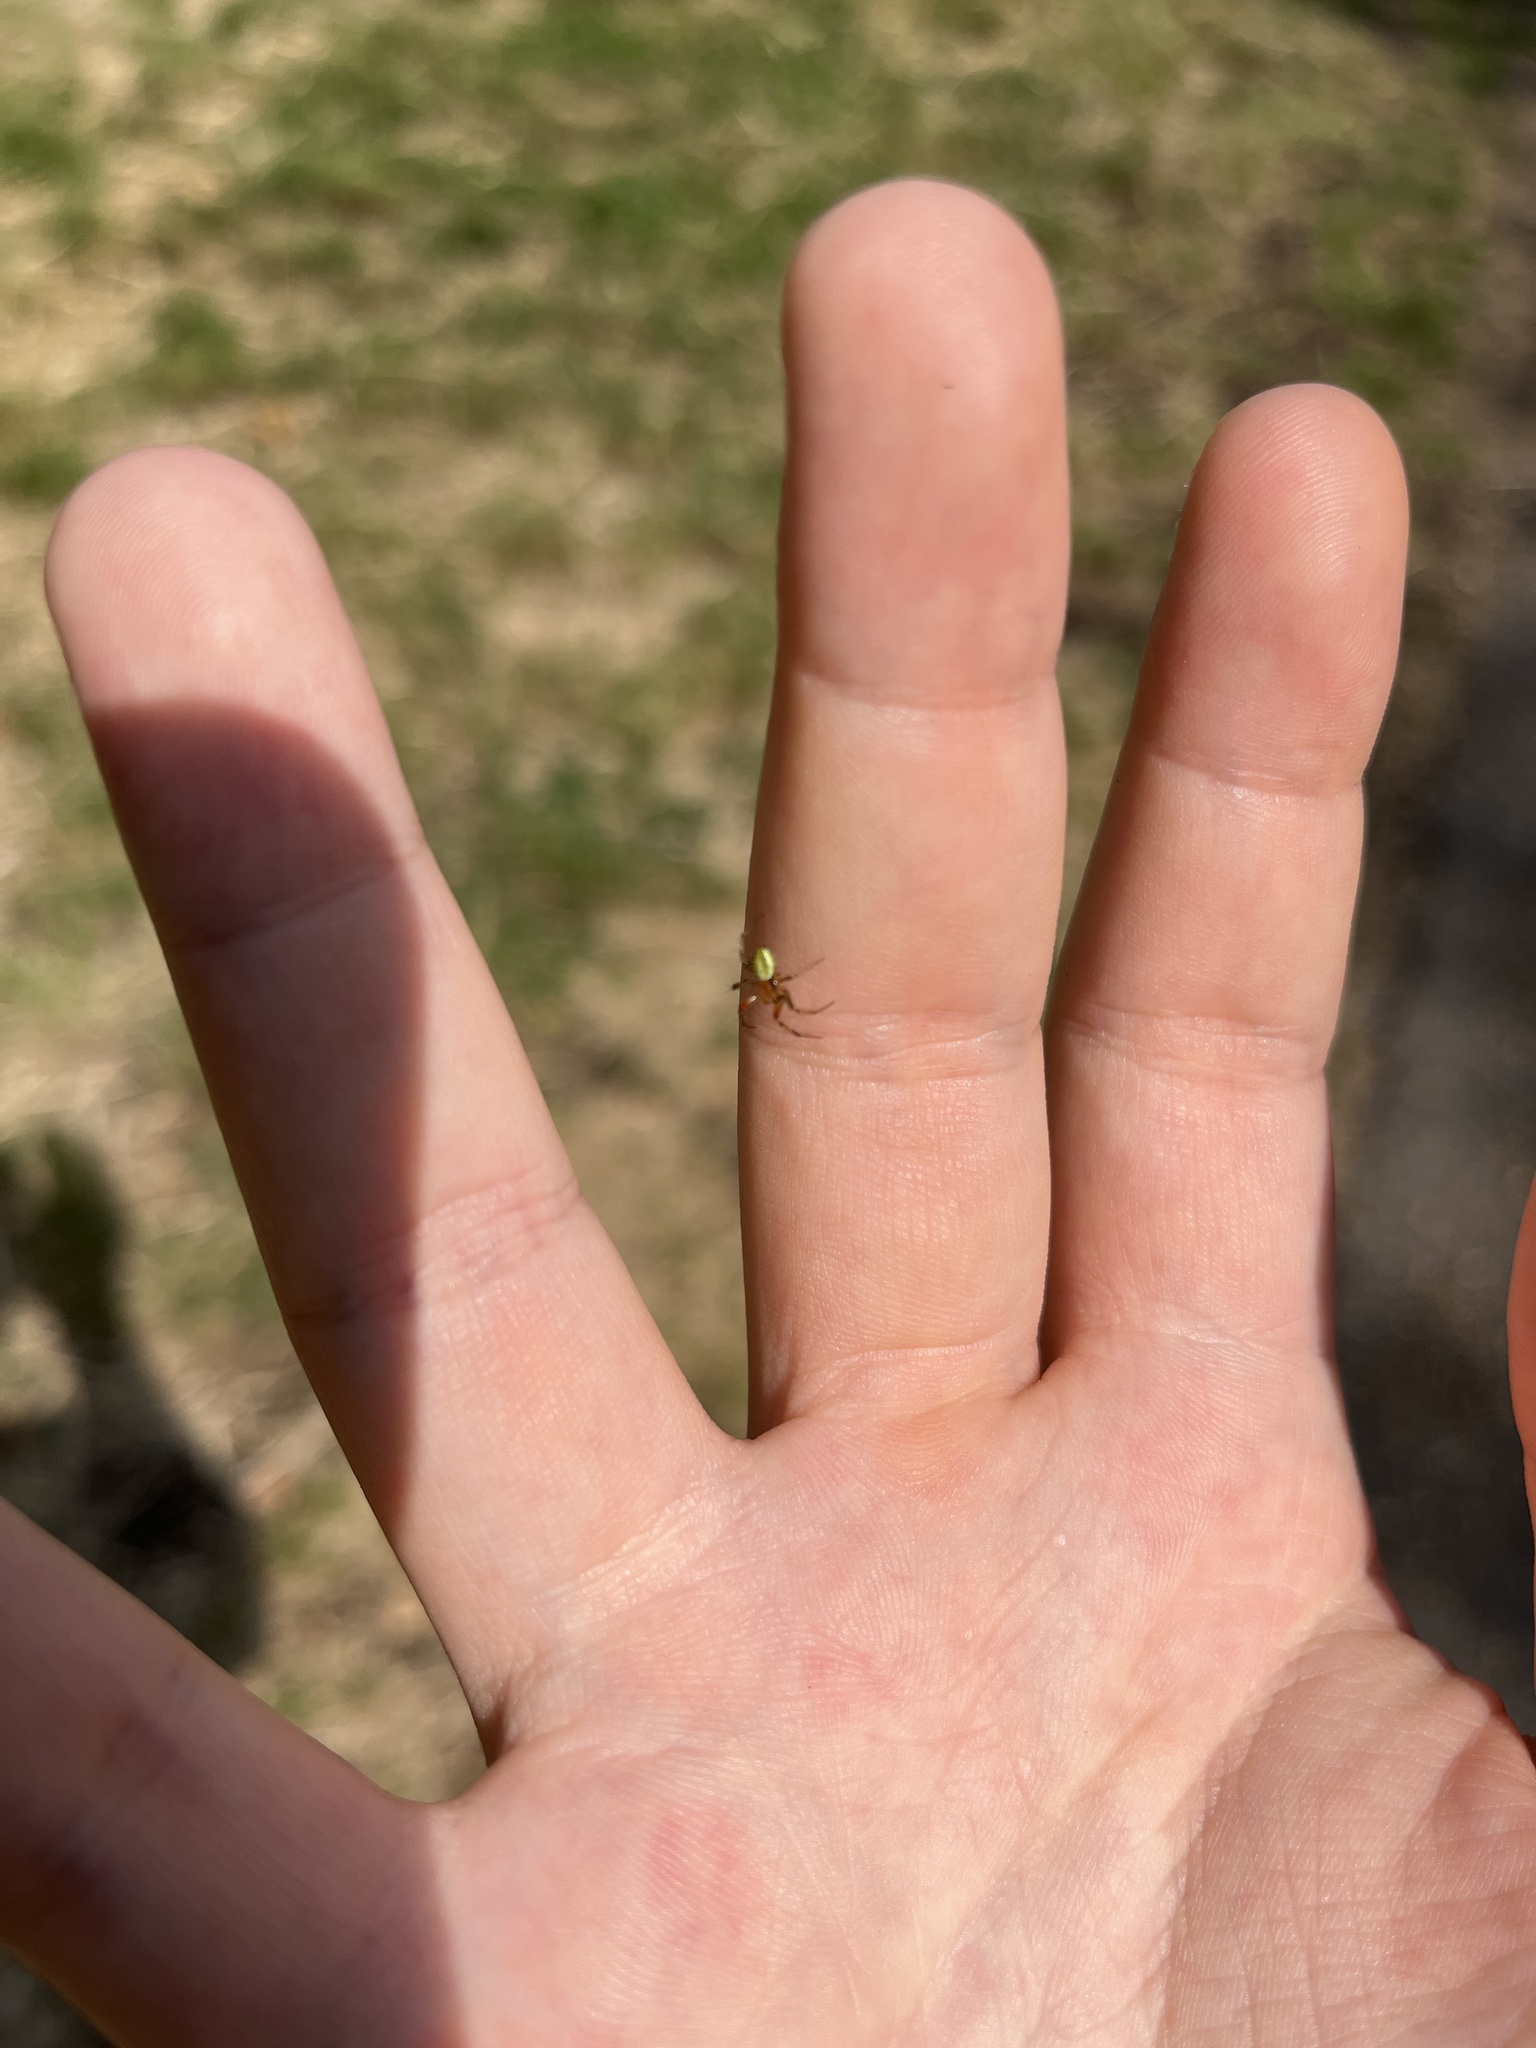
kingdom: Animalia
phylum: Arthropoda
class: Arachnida
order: Araneae
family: Araneidae
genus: Araniella
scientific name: Araniella
